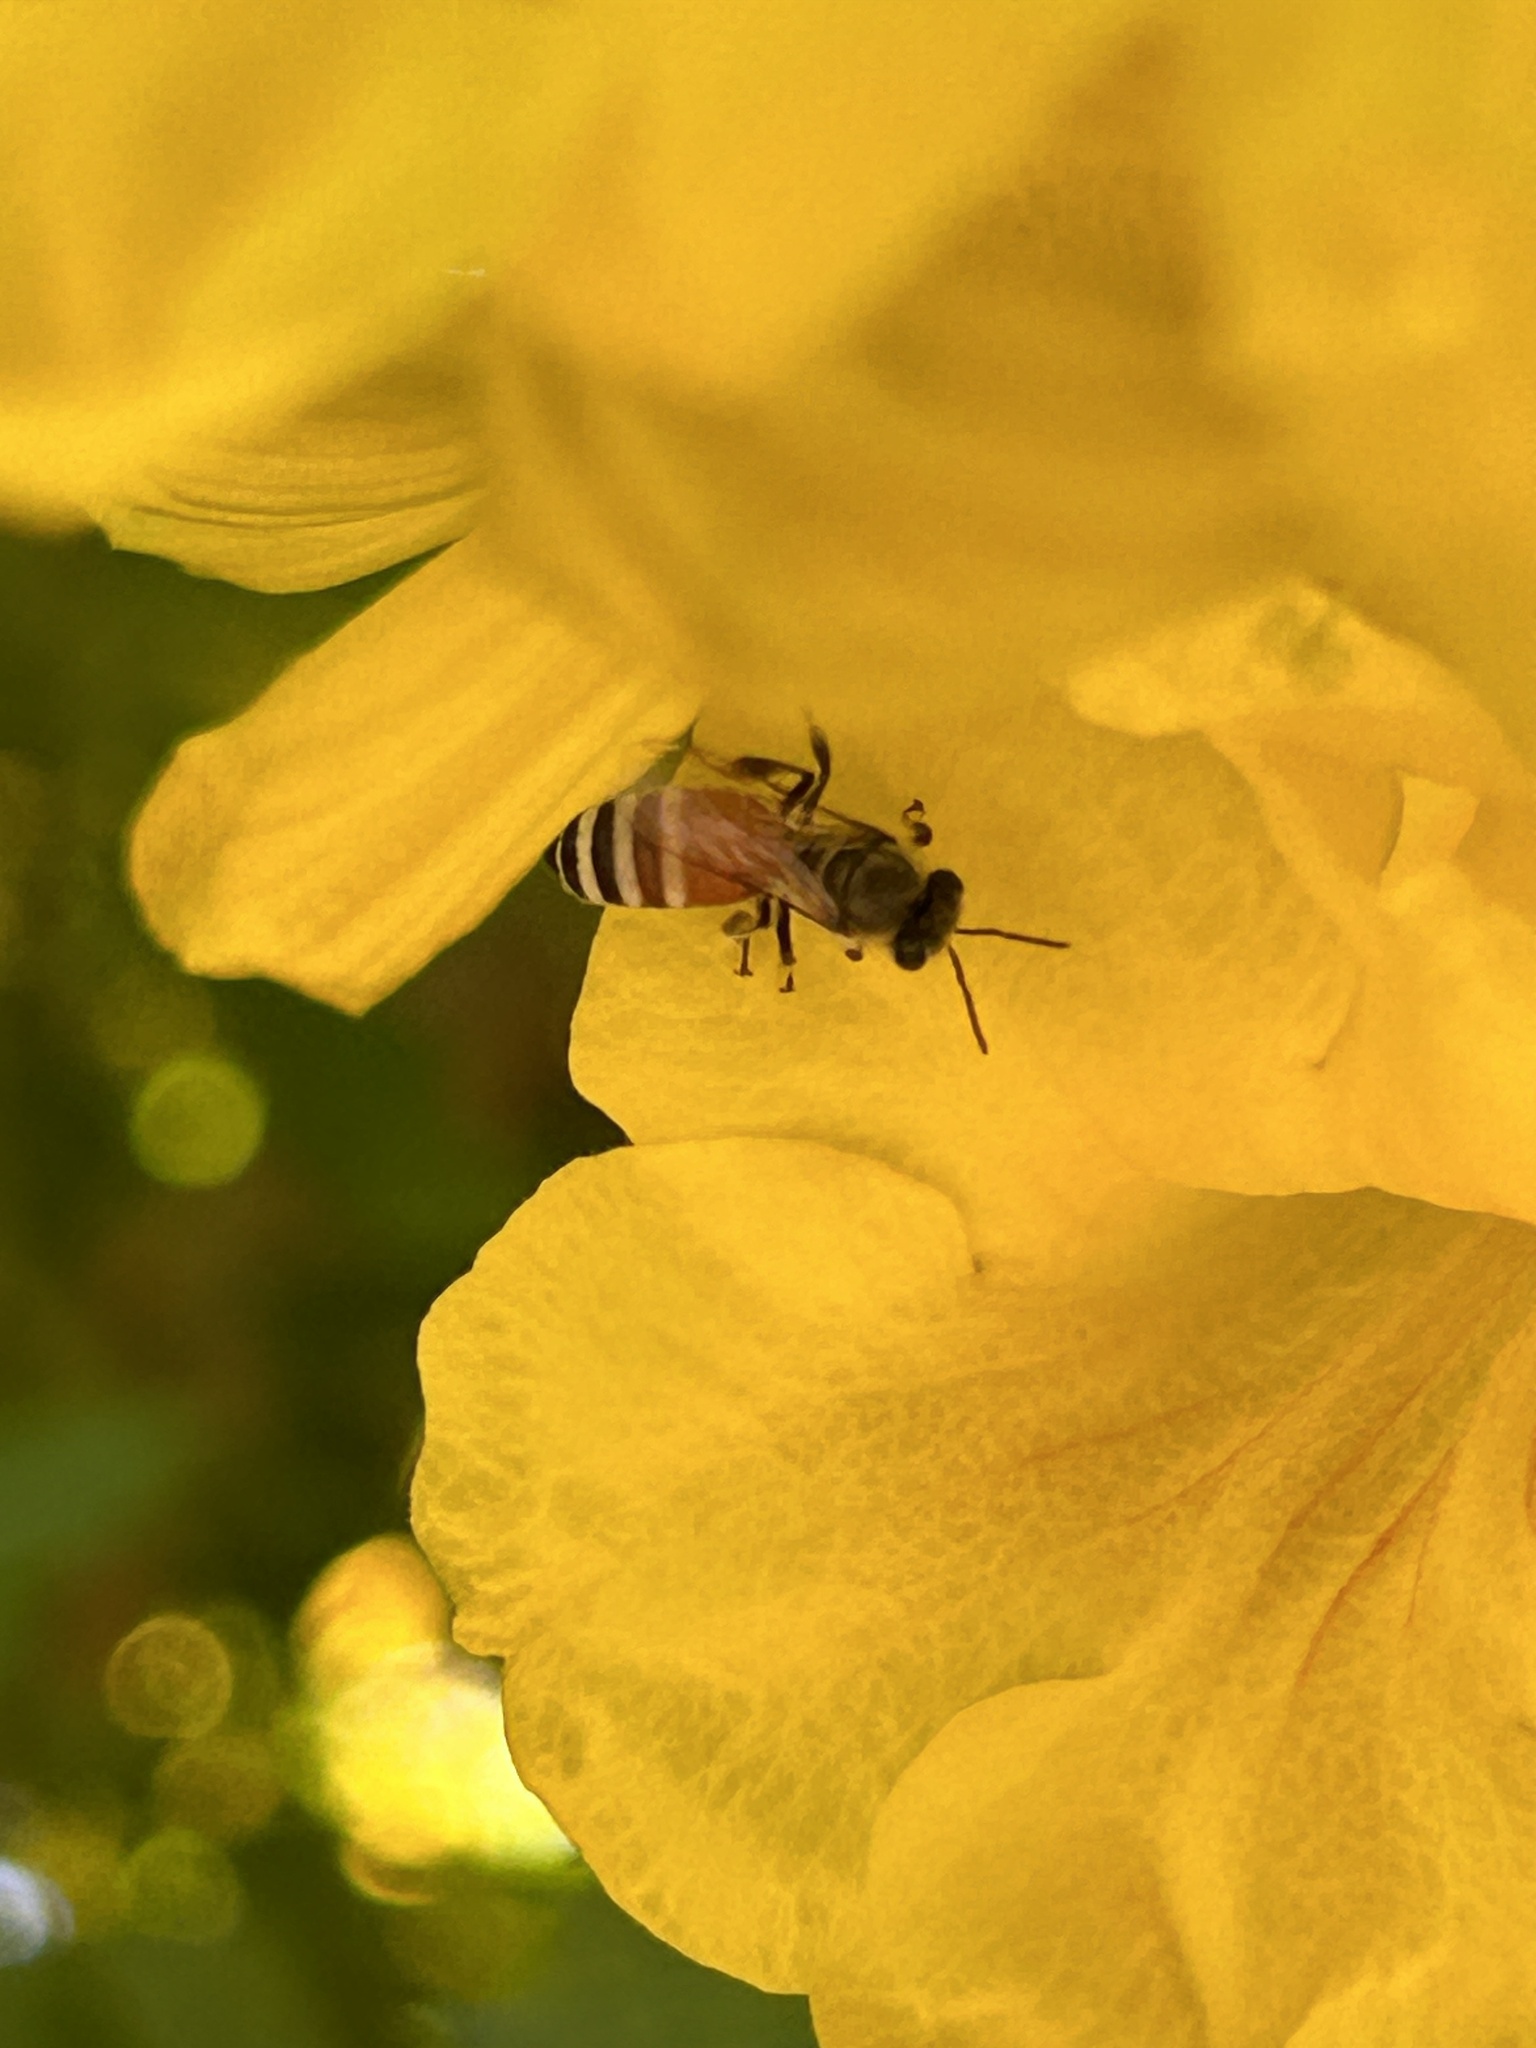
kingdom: Animalia
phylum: Arthropoda
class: Insecta
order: Hymenoptera
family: Apidae
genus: Apis
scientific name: Apis florea
